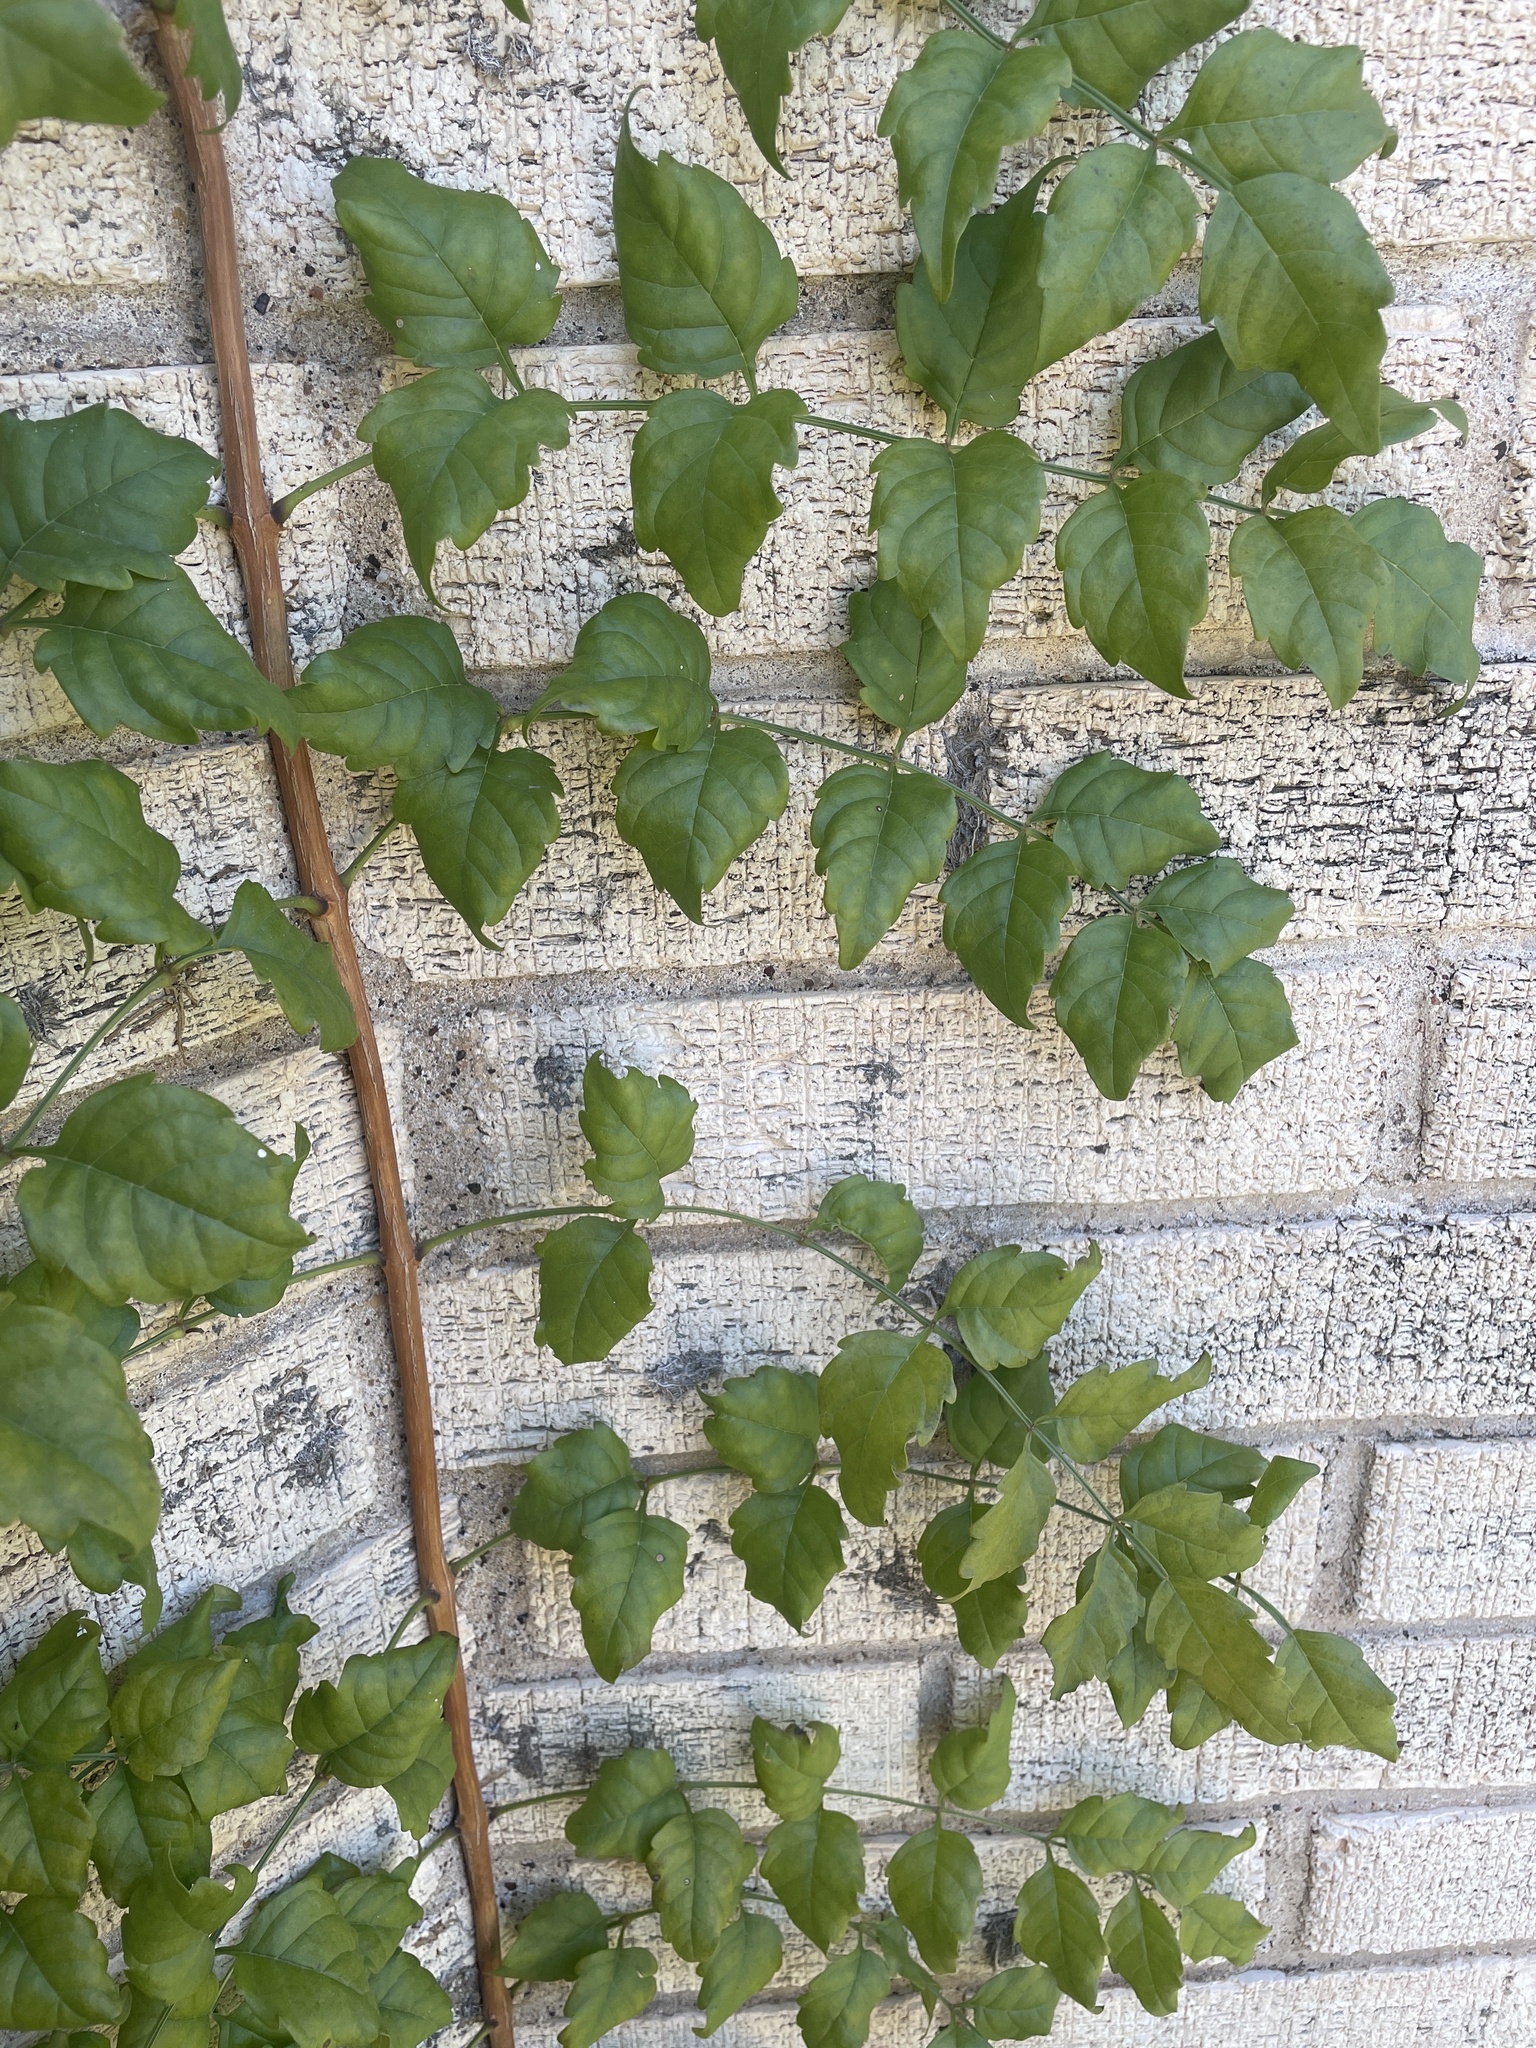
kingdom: Plantae
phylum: Tracheophyta
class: Magnoliopsida
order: Lamiales
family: Bignoniaceae
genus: Campsis
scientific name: Campsis radicans
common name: Trumpet-creeper
